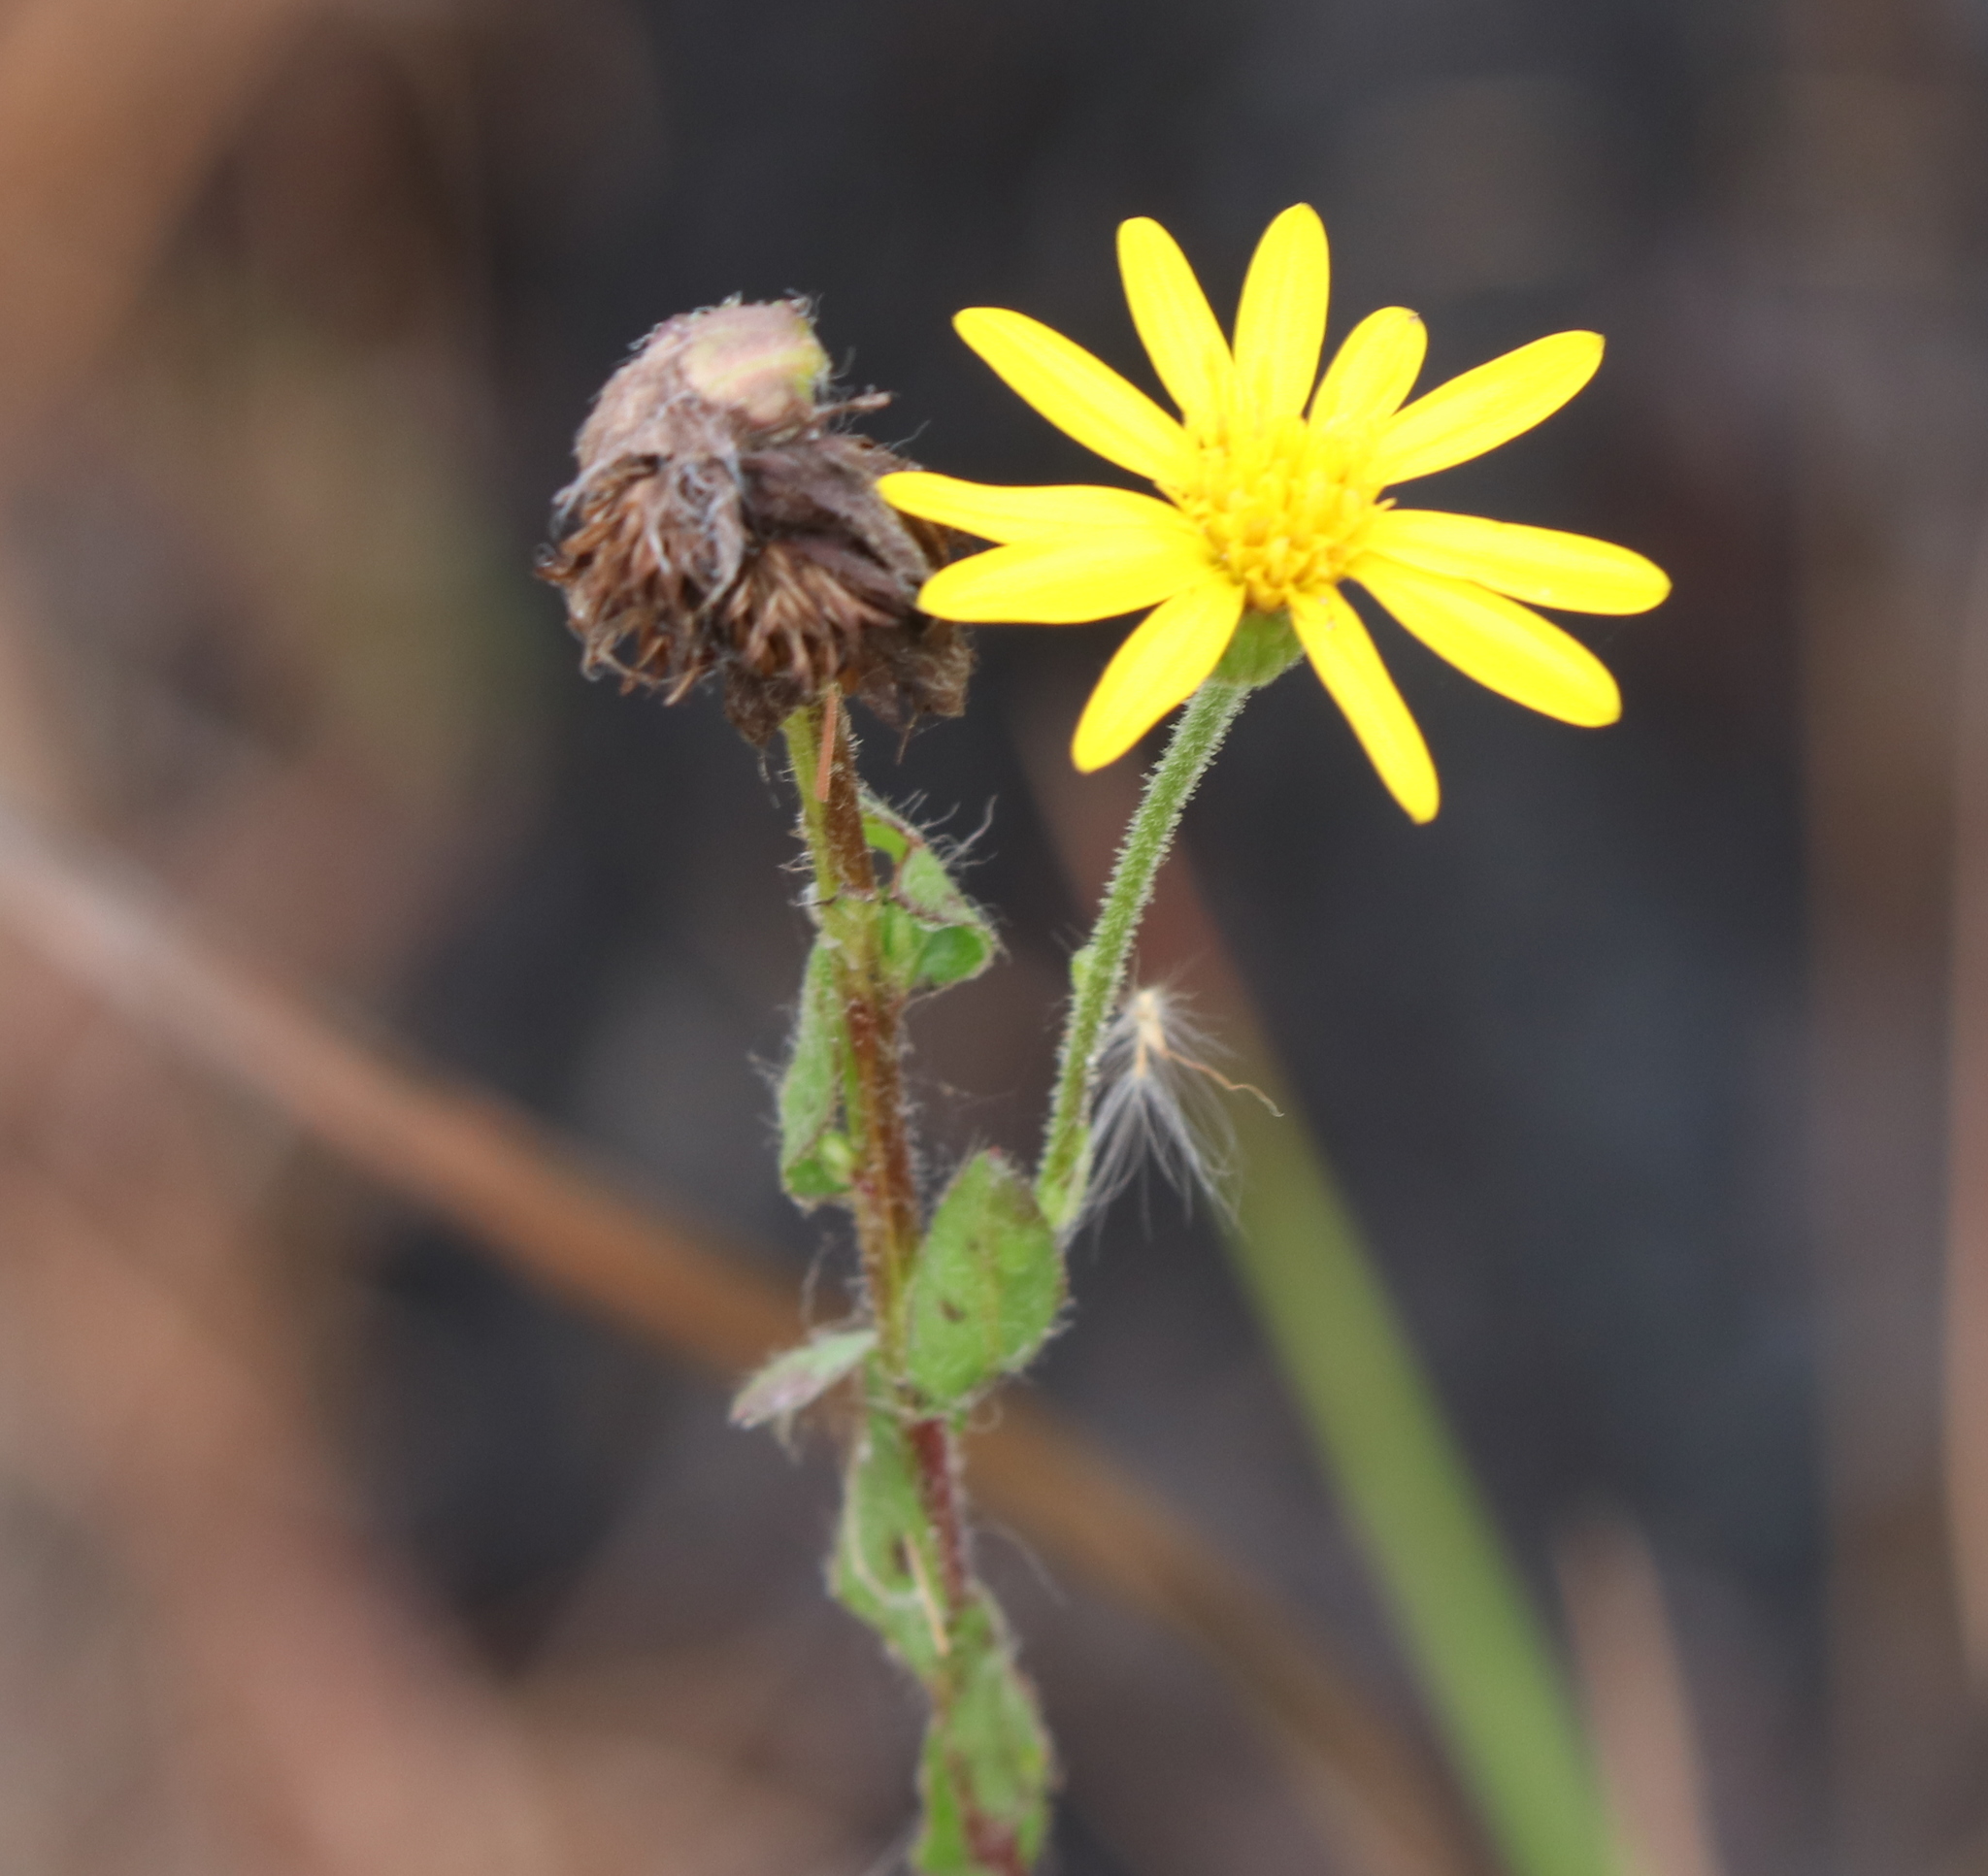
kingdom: Plantae
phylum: Tracheophyta
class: Magnoliopsida
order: Asterales
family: Asteraceae
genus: Chrysopsis
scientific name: Chrysopsis mariana
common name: Maryland golden-aster
